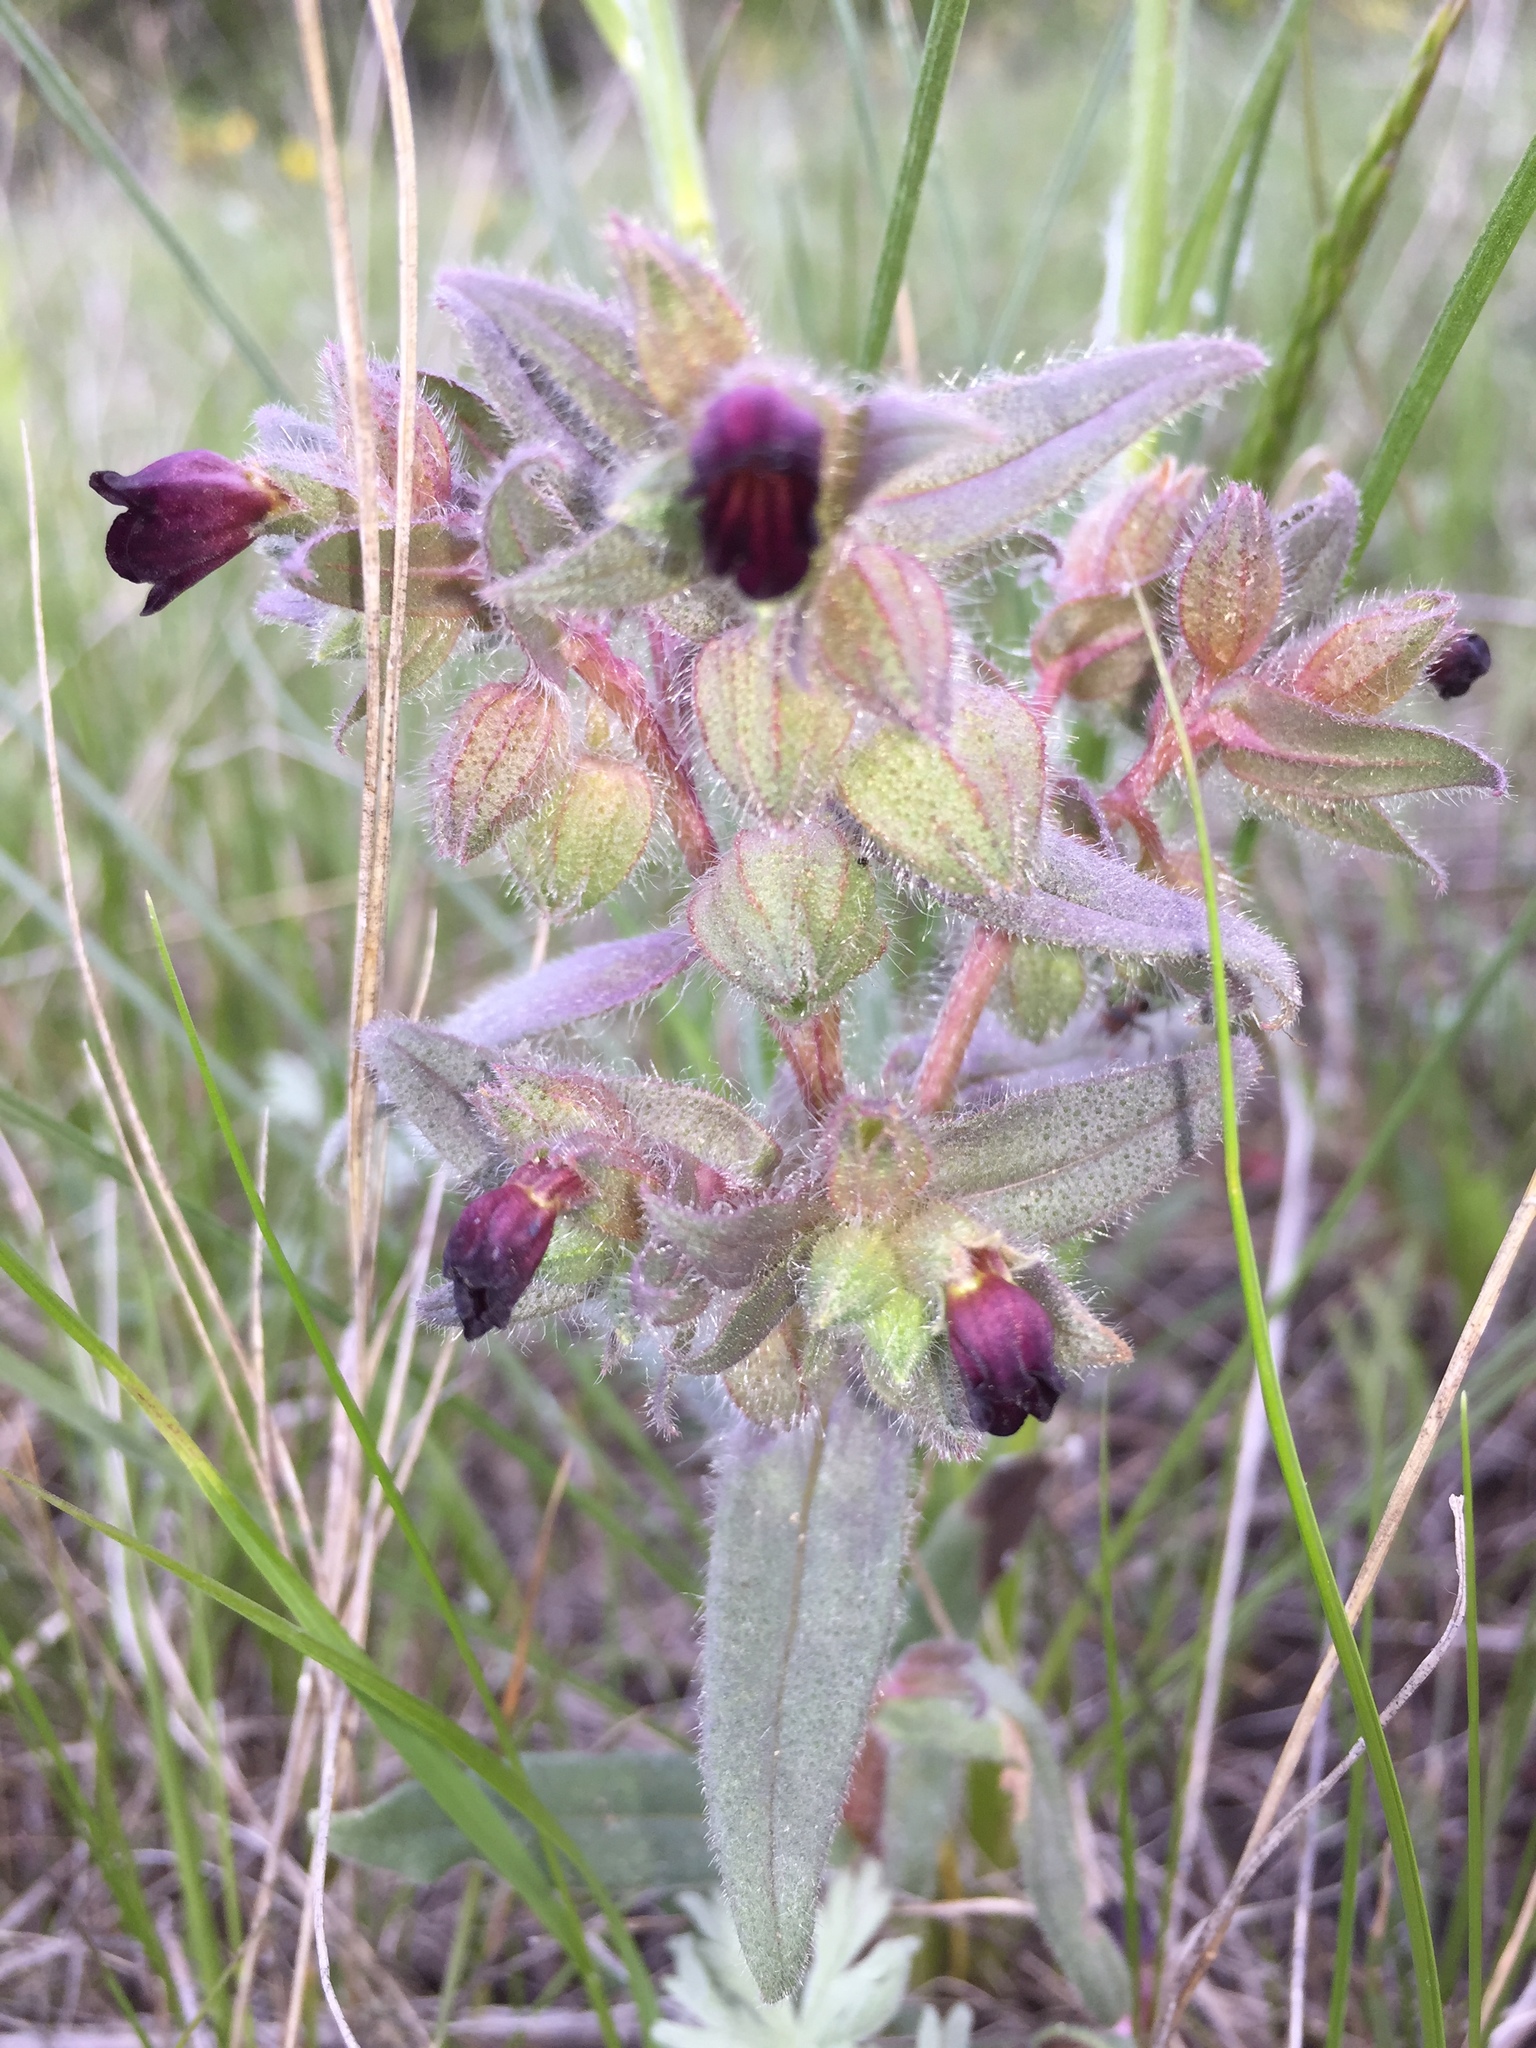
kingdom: Plantae
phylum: Tracheophyta
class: Magnoliopsida
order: Boraginales
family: Boraginaceae
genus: Nonea
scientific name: Nonea pulla
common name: Brown nonea
